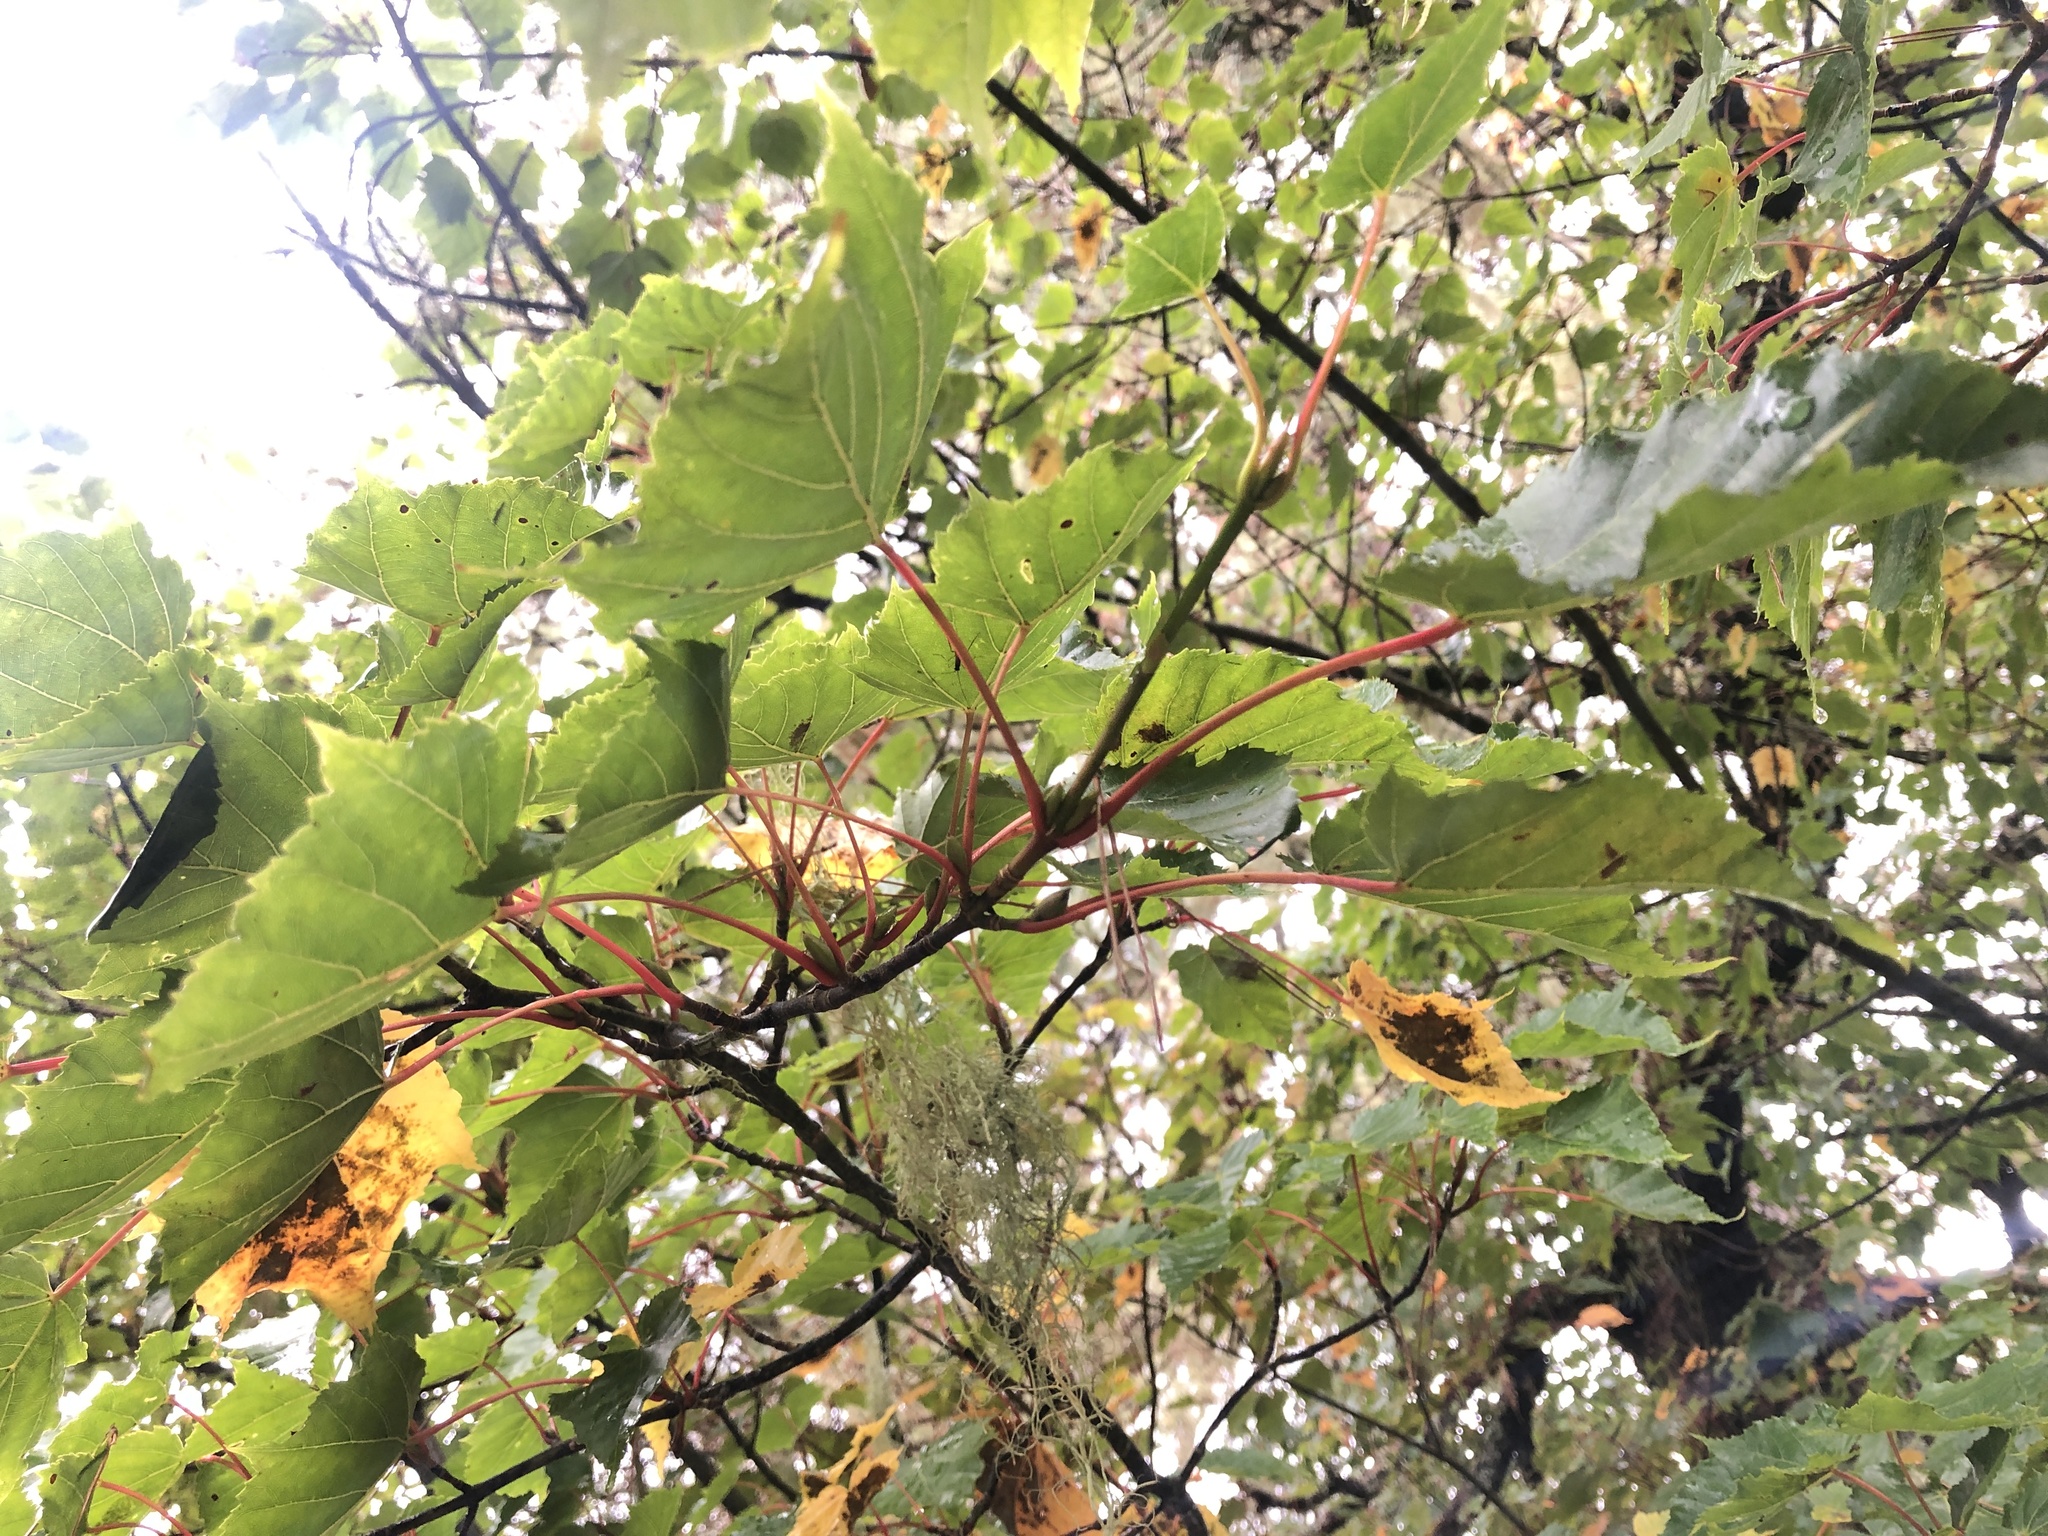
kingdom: Plantae
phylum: Tracheophyta
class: Magnoliopsida
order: Sapindales
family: Sapindaceae
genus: Acer
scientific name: Acer caudatifolium
